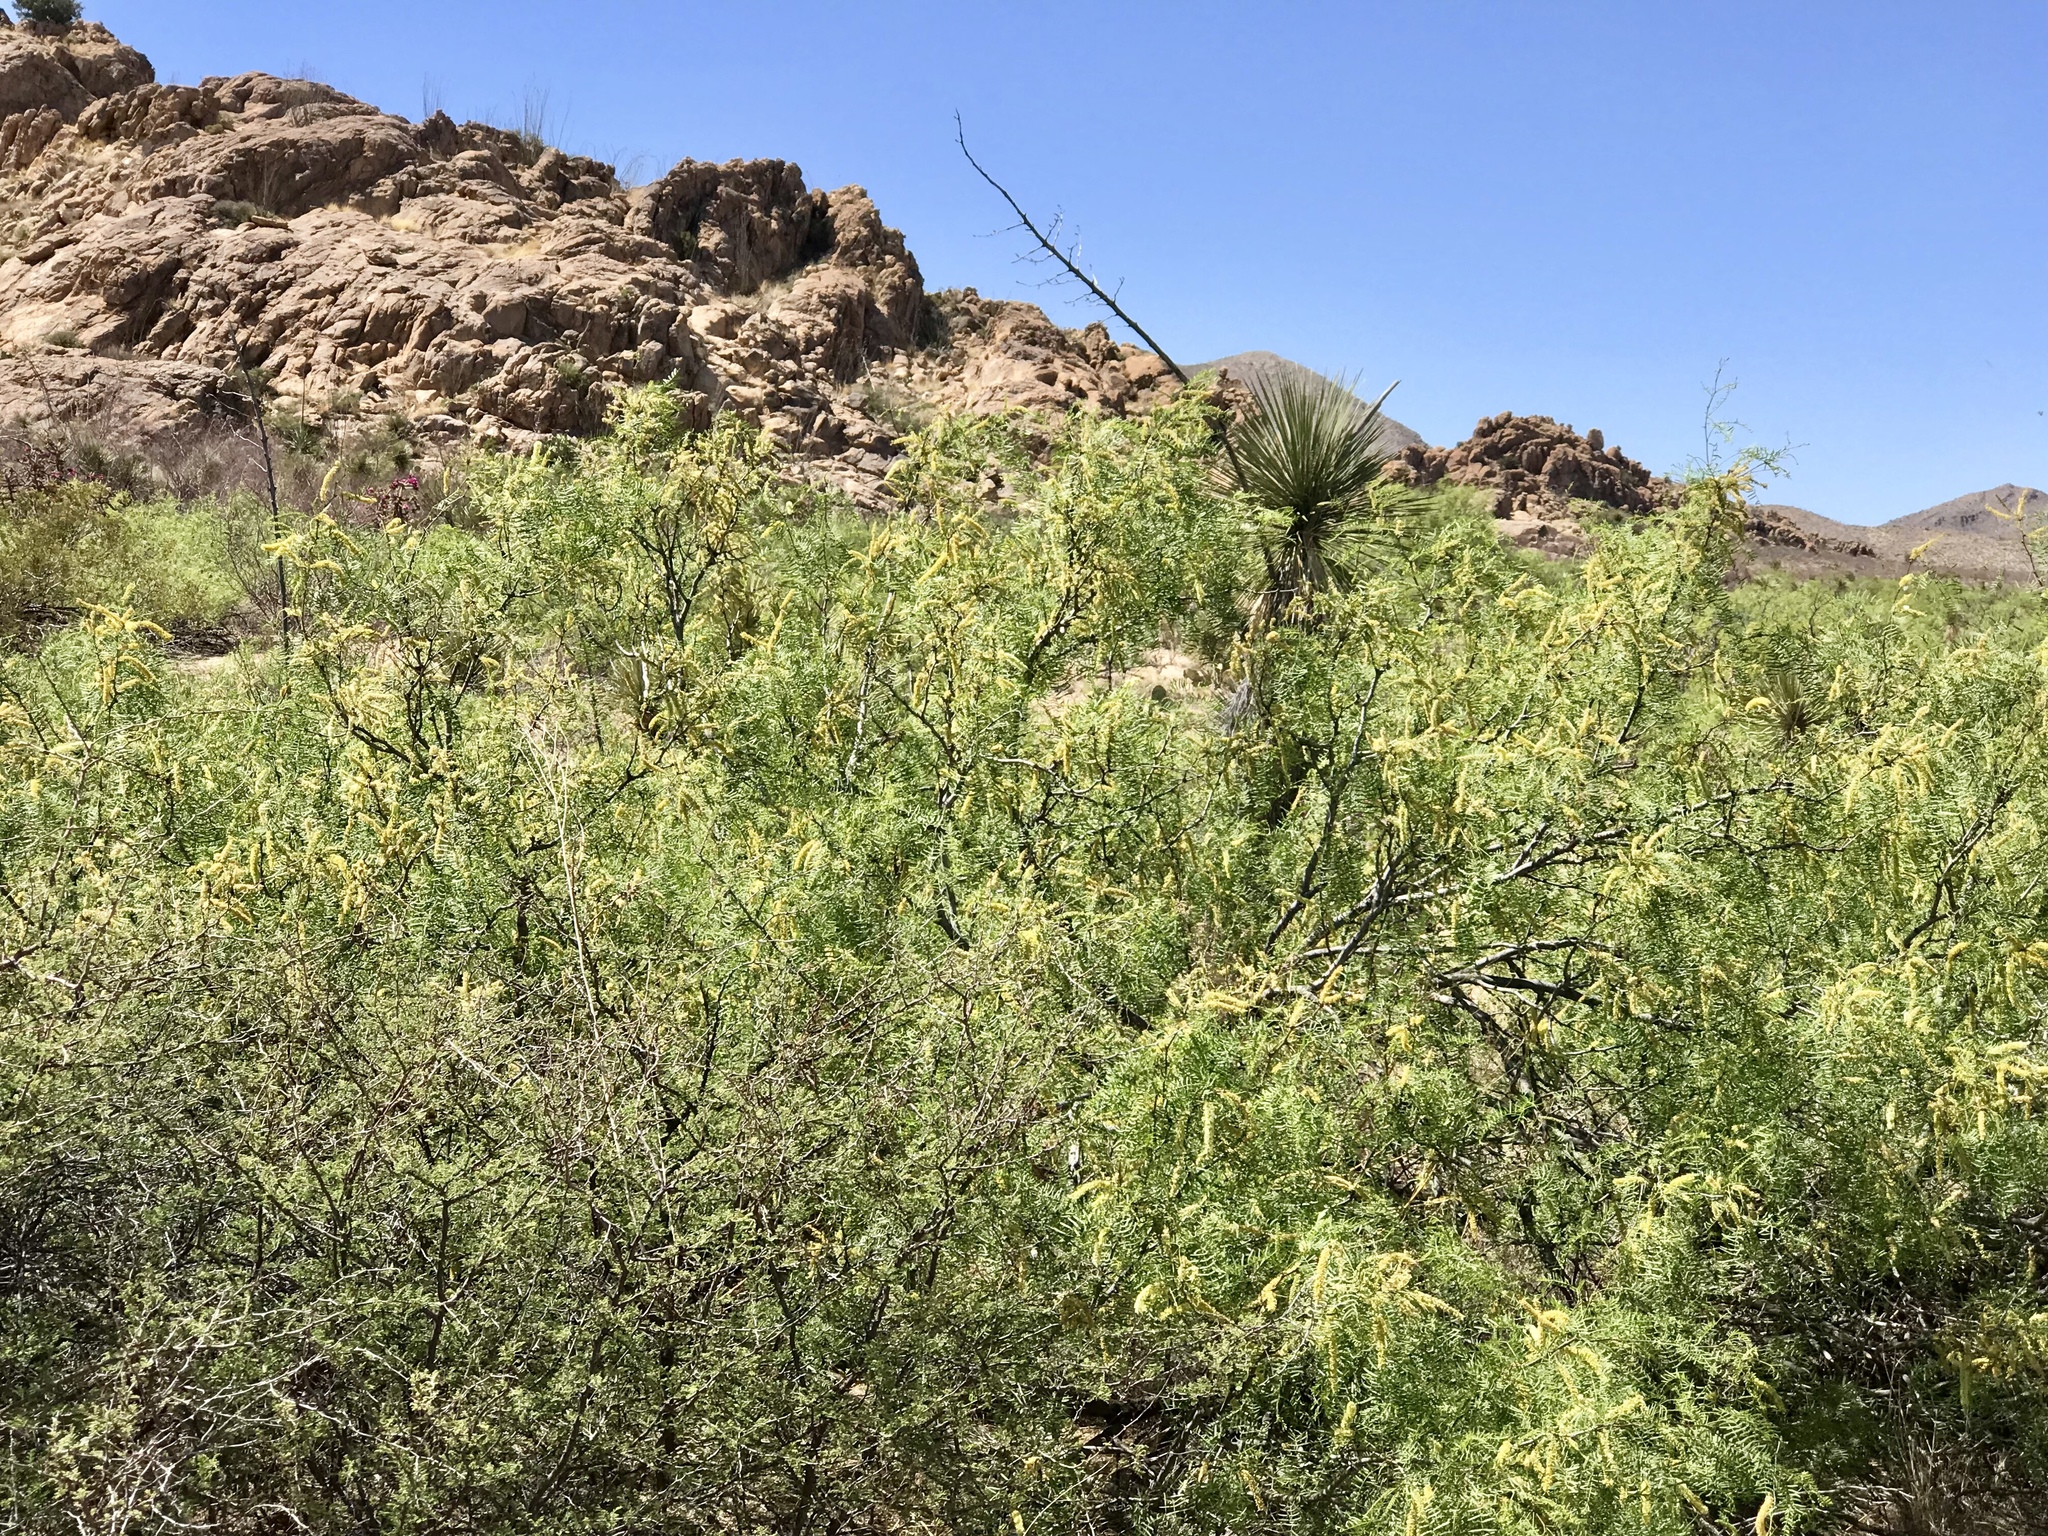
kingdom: Plantae
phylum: Tracheophyta
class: Magnoliopsida
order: Fabales
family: Fabaceae
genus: Prosopis
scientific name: Prosopis glandulosa
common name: Honey mesquite
